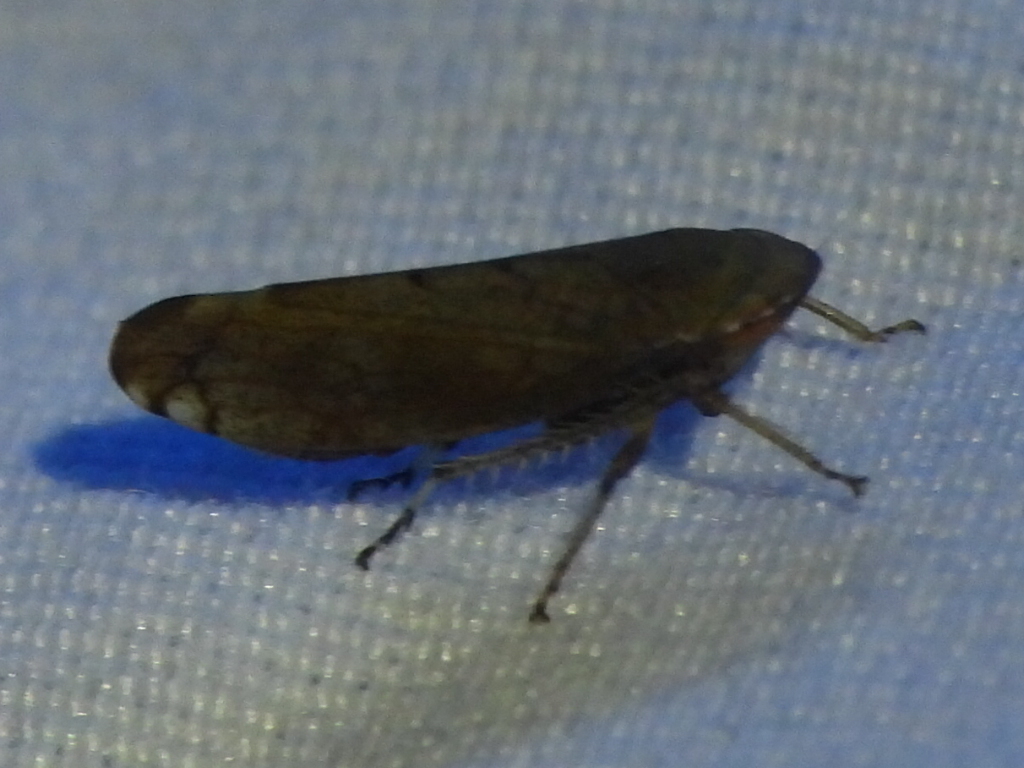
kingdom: Animalia
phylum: Arthropoda
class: Insecta
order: Hemiptera
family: Cicadellidae
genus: Fieberiella
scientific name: Fieberiella florii
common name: Flor’s leafhopper
